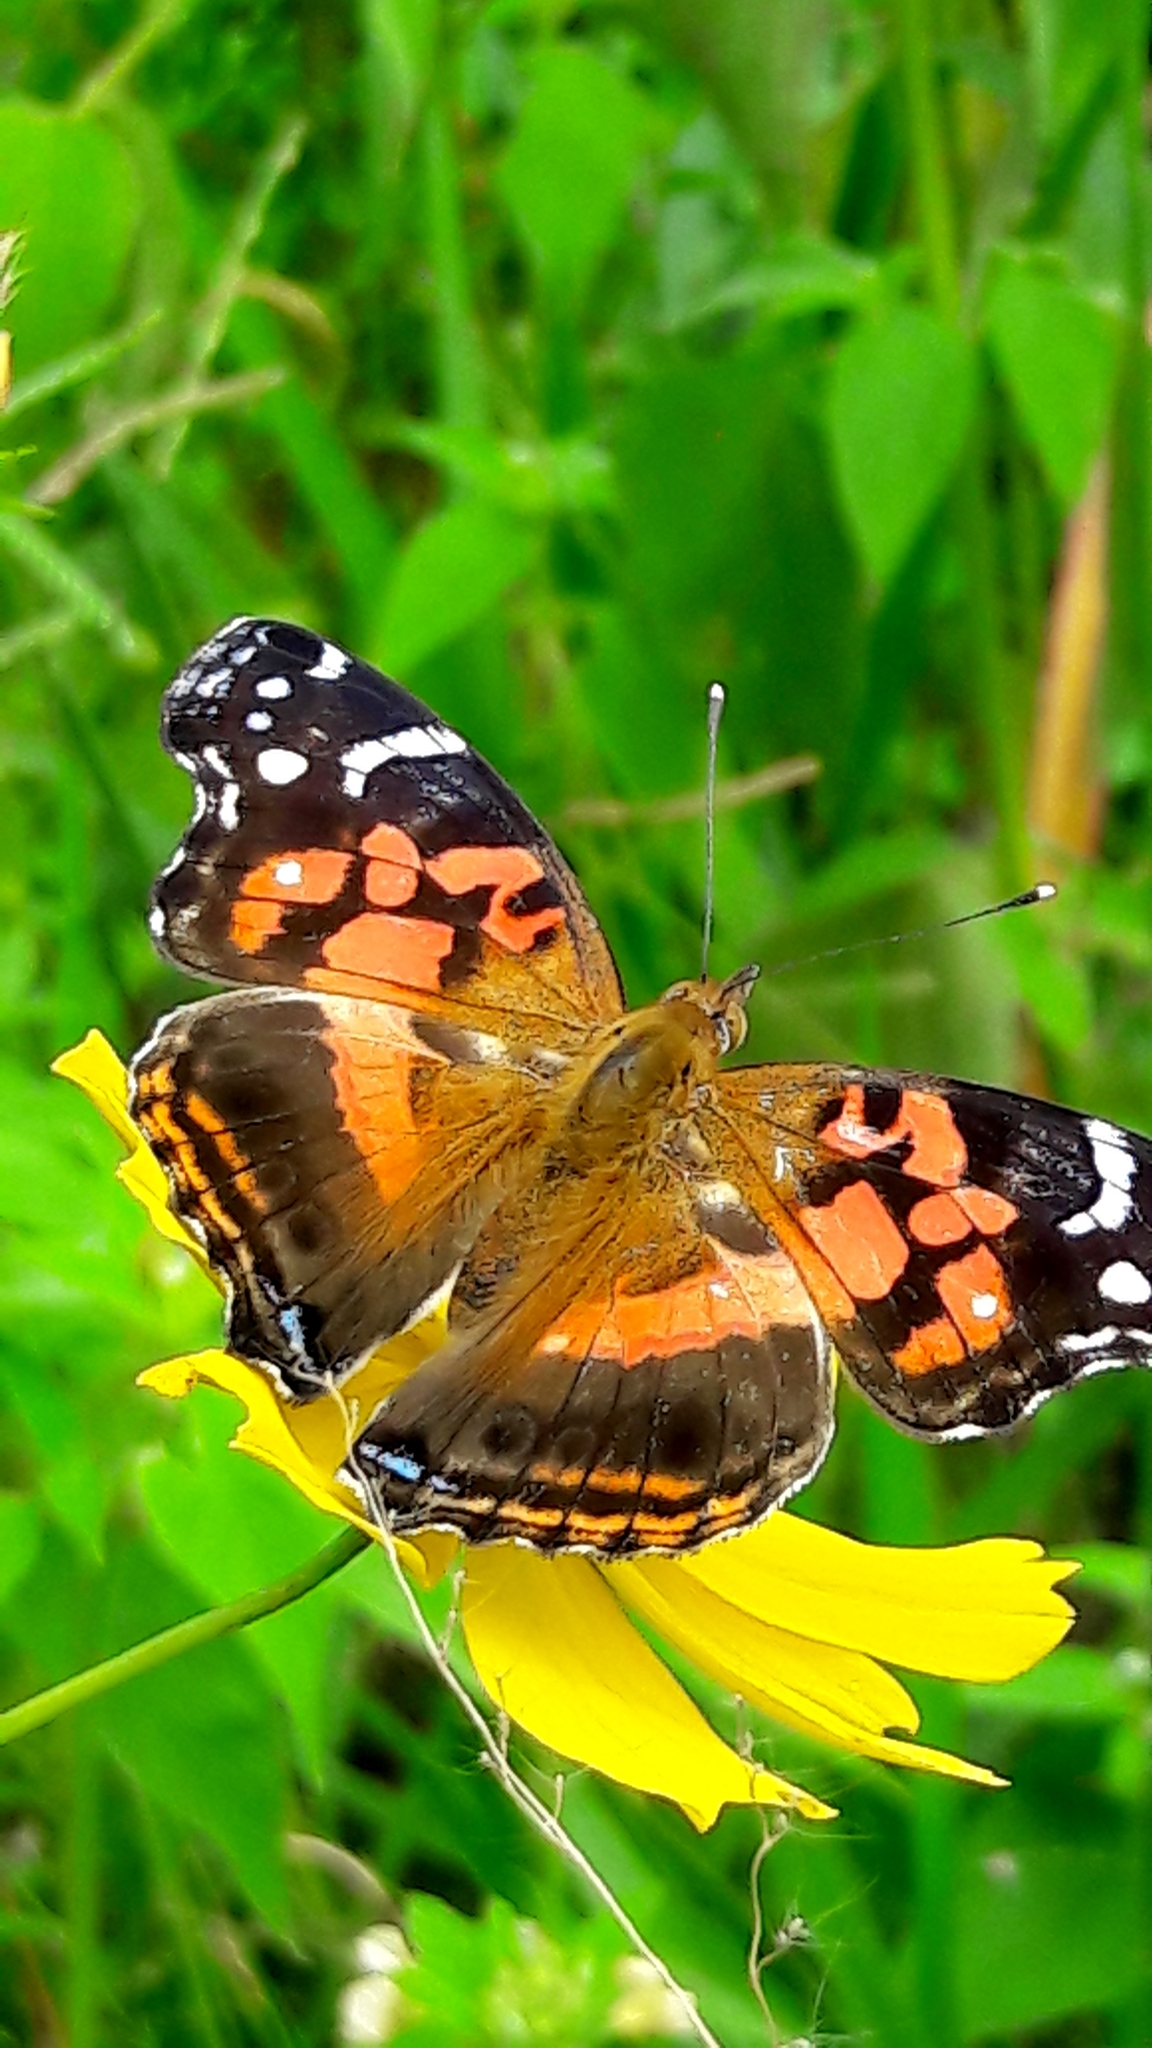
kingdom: Animalia
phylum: Arthropoda
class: Insecta
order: Lepidoptera
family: Nymphalidae
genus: Vanessa
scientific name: Vanessa myrinna
